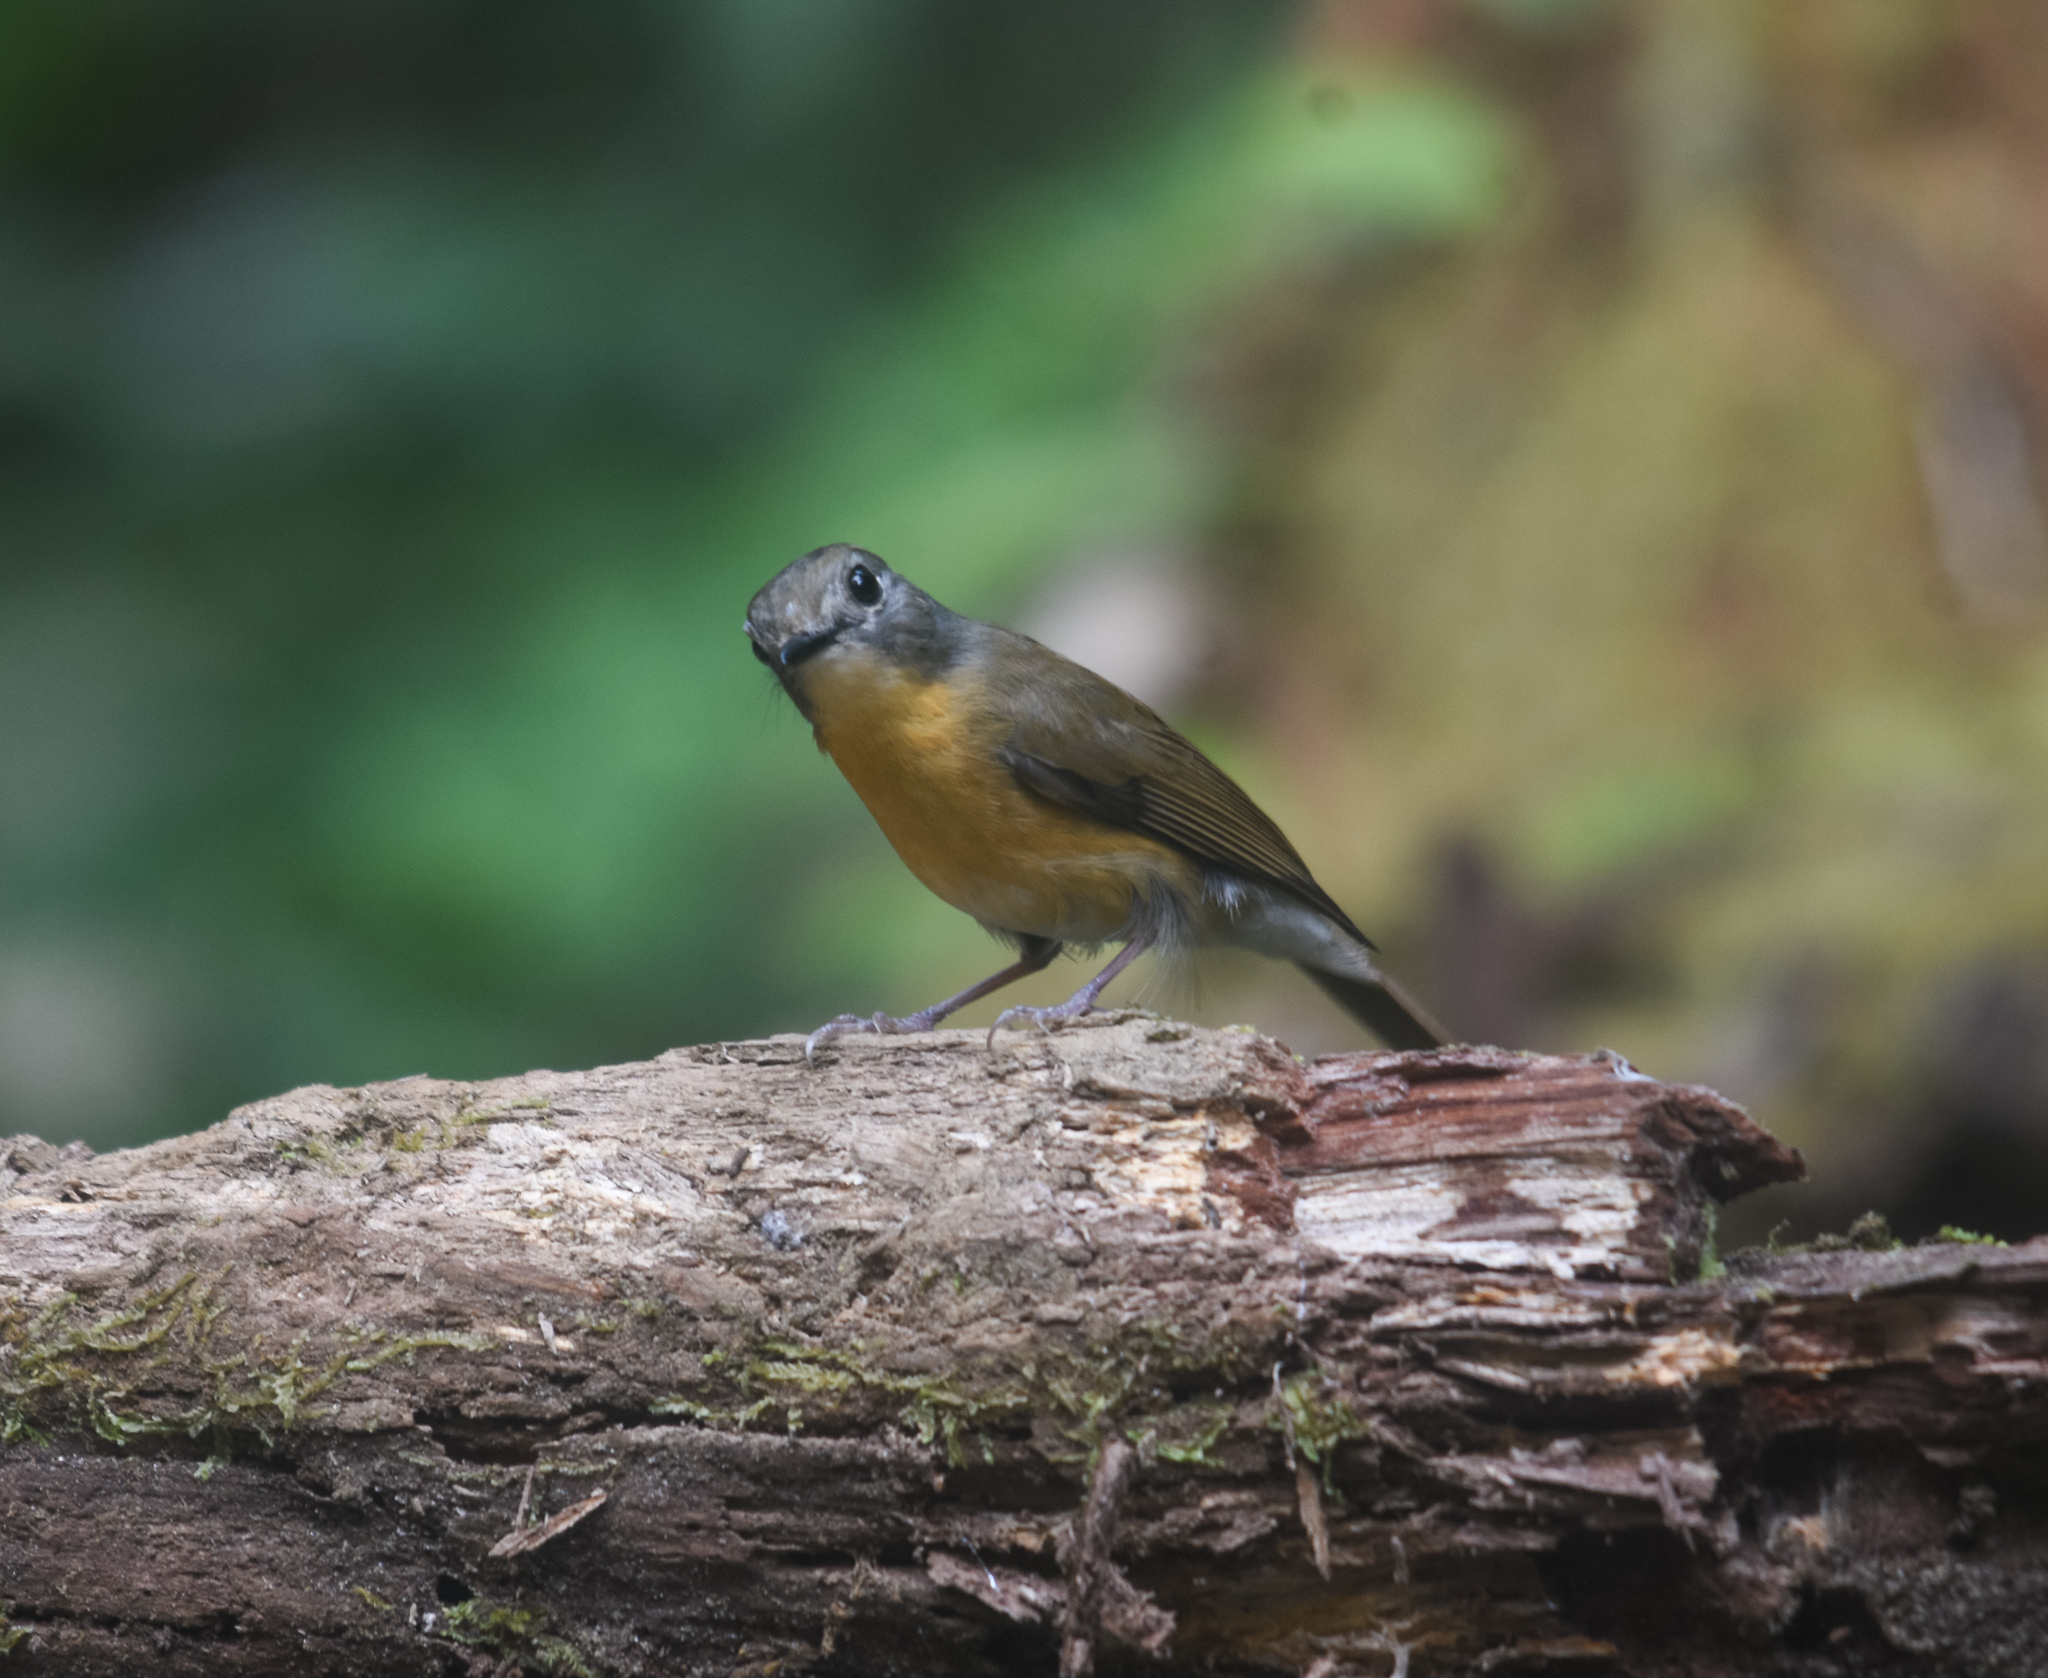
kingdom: Animalia
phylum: Chordata
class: Aves
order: Passeriformes
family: Muscicapidae
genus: Cyornis
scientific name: Cyornis poliogenys
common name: Pale-chinned blue flycatcher
